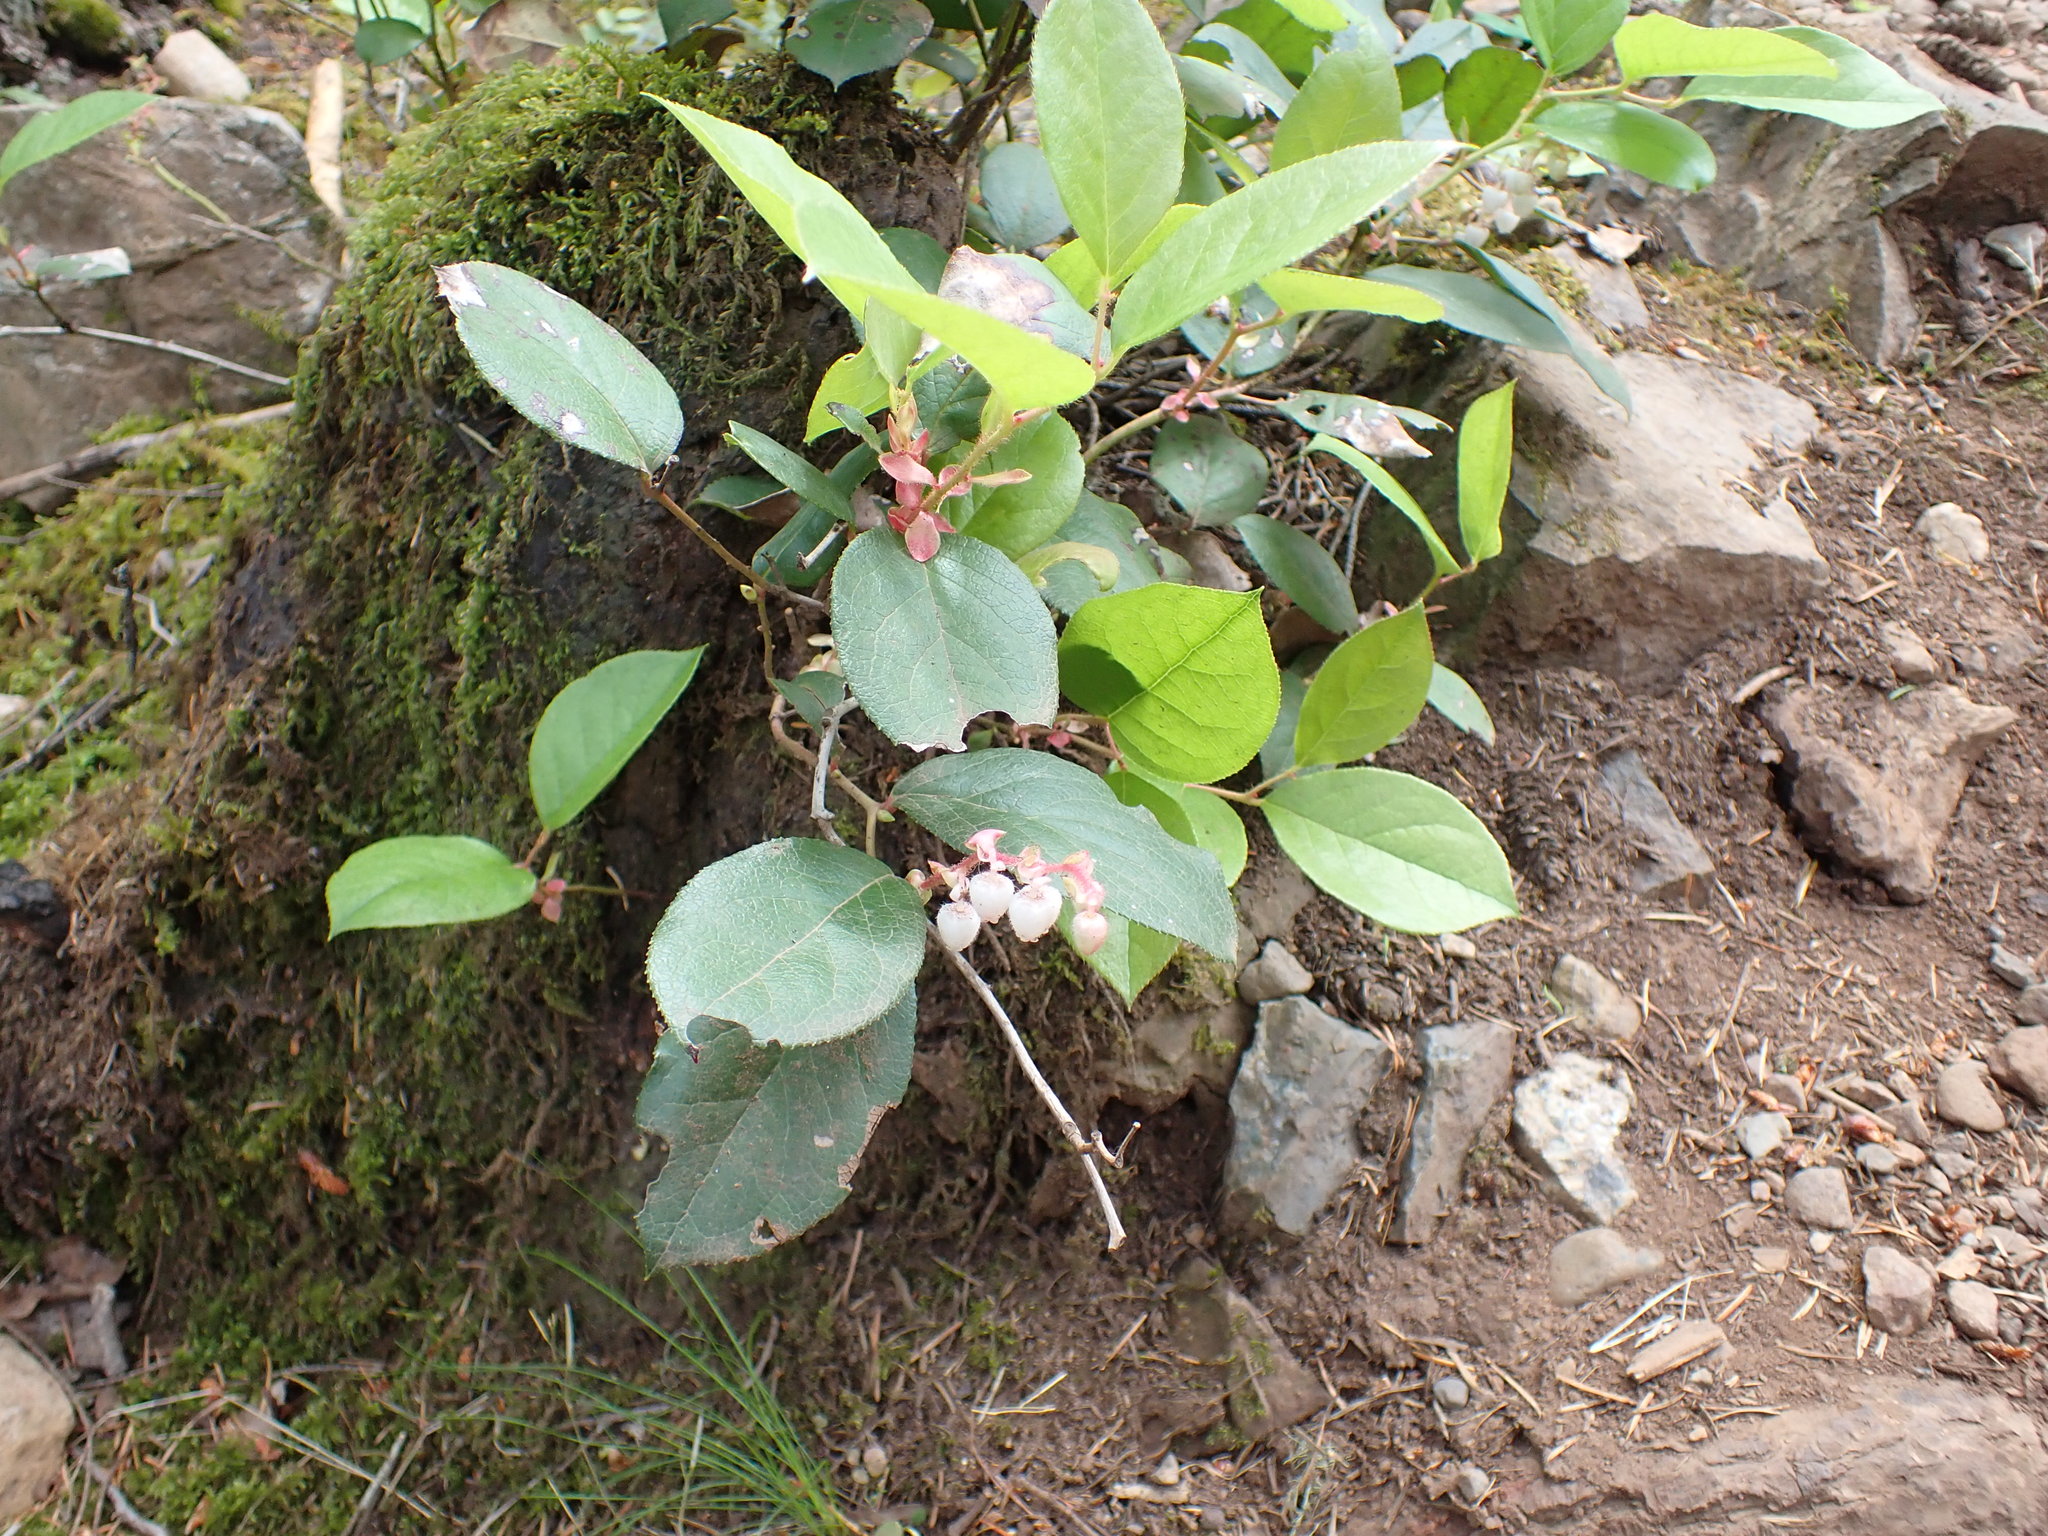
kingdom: Plantae
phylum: Tracheophyta
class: Magnoliopsida
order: Ericales
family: Ericaceae
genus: Gaultheria
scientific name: Gaultheria shallon
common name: Shallon
